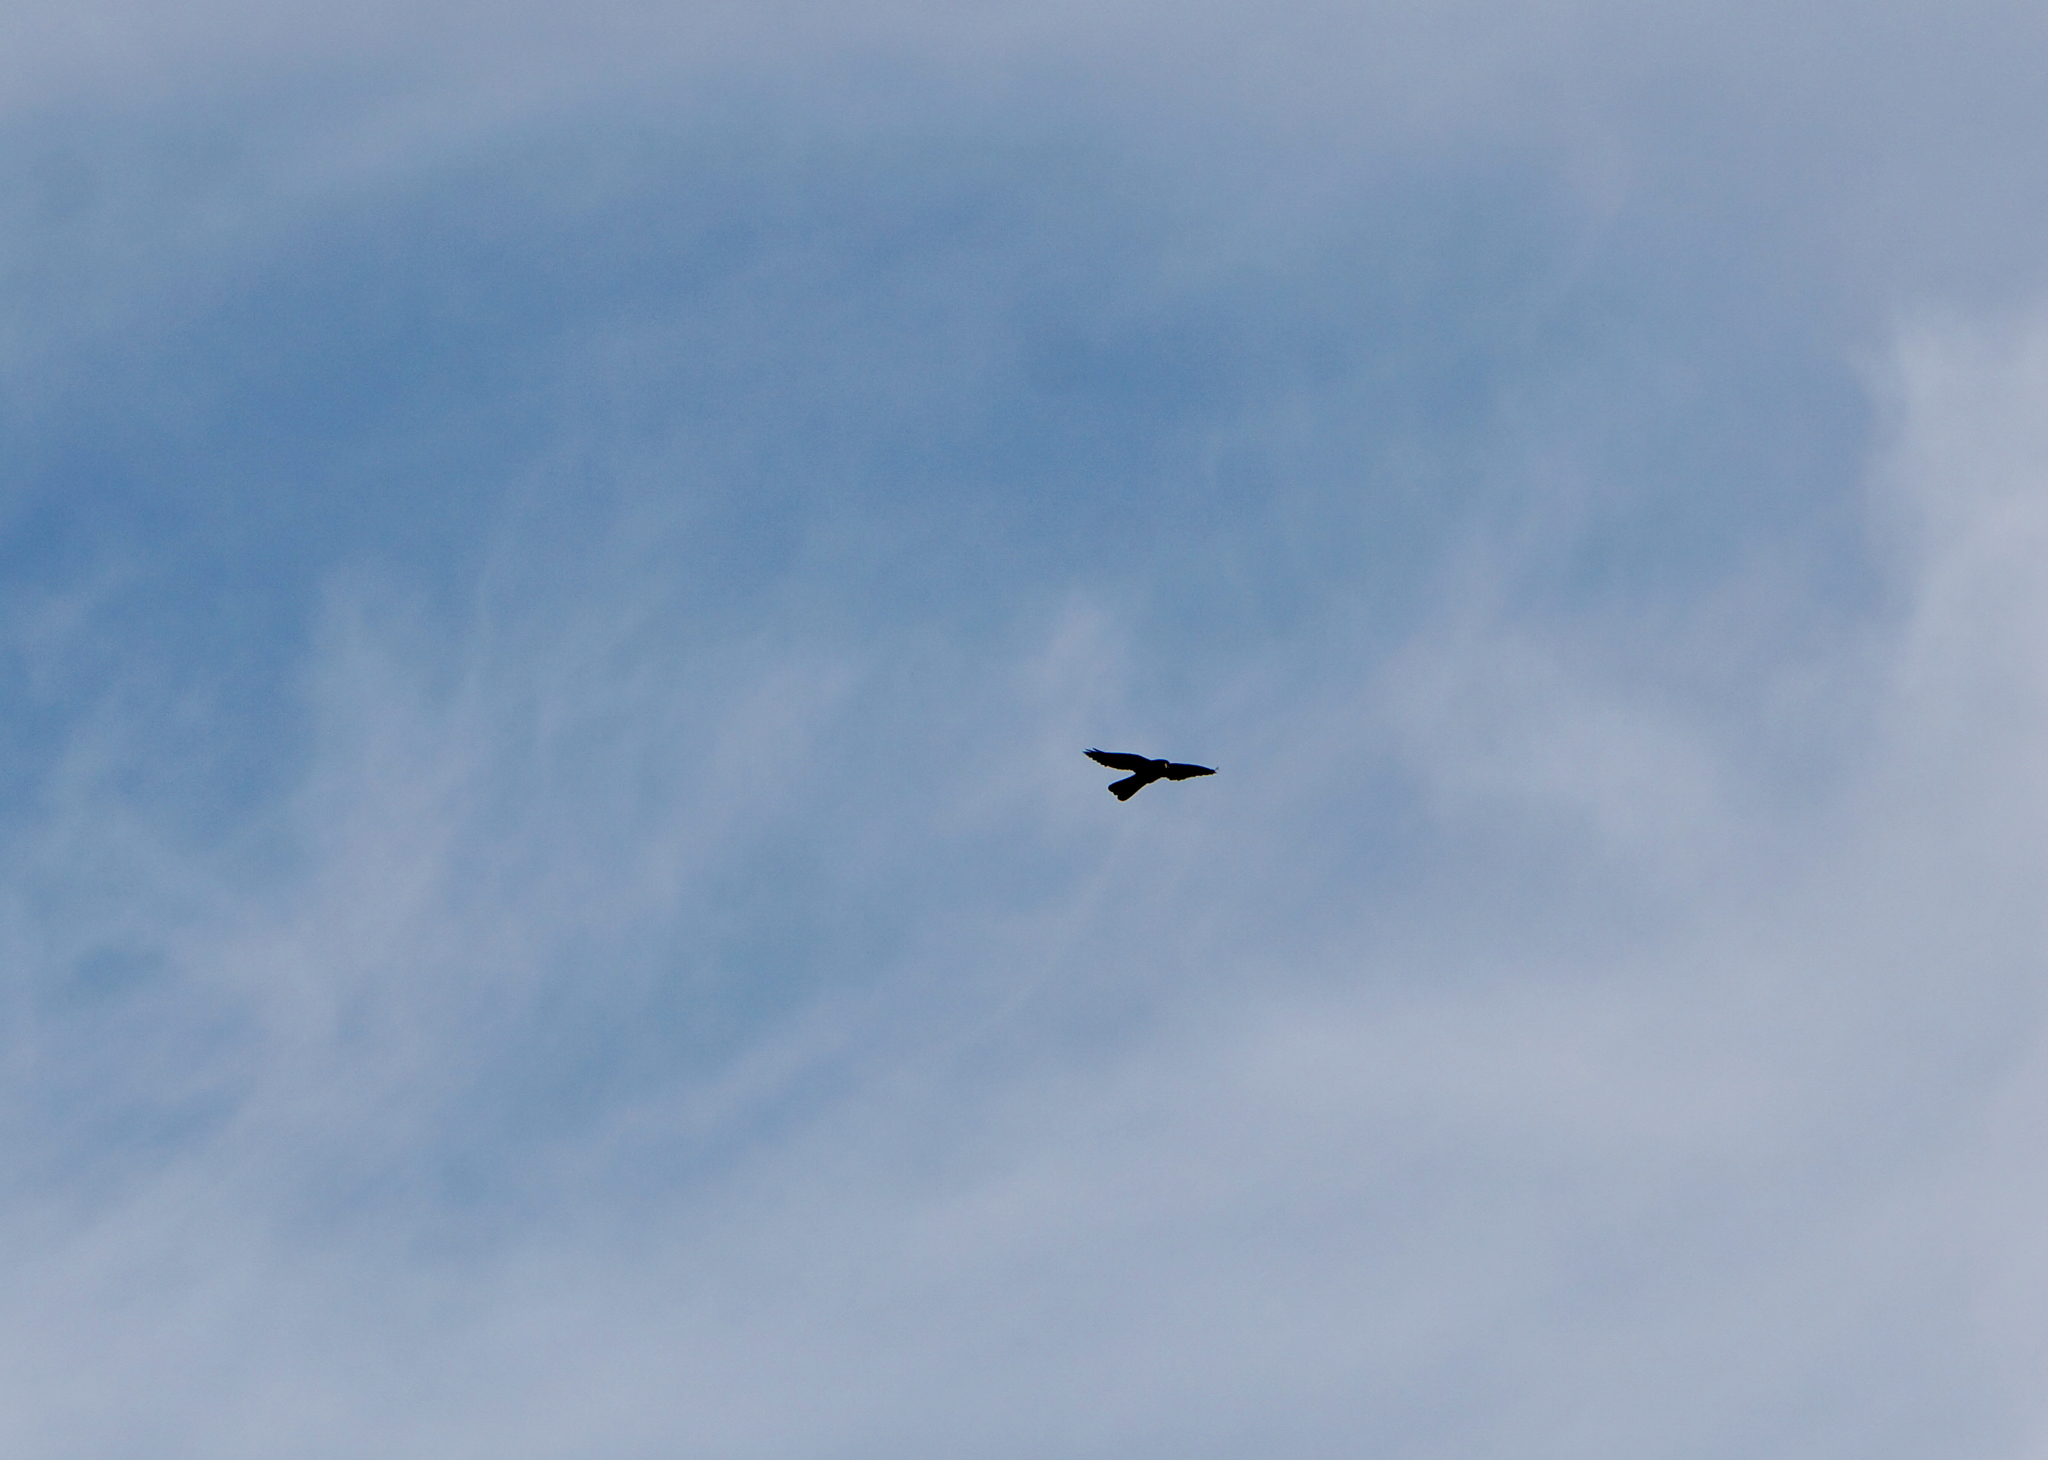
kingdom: Animalia
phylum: Chordata
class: Aves
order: Falconiformes
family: Falconidae
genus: Falco
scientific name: Falco novaeseelandiae
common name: New zealand falcon
